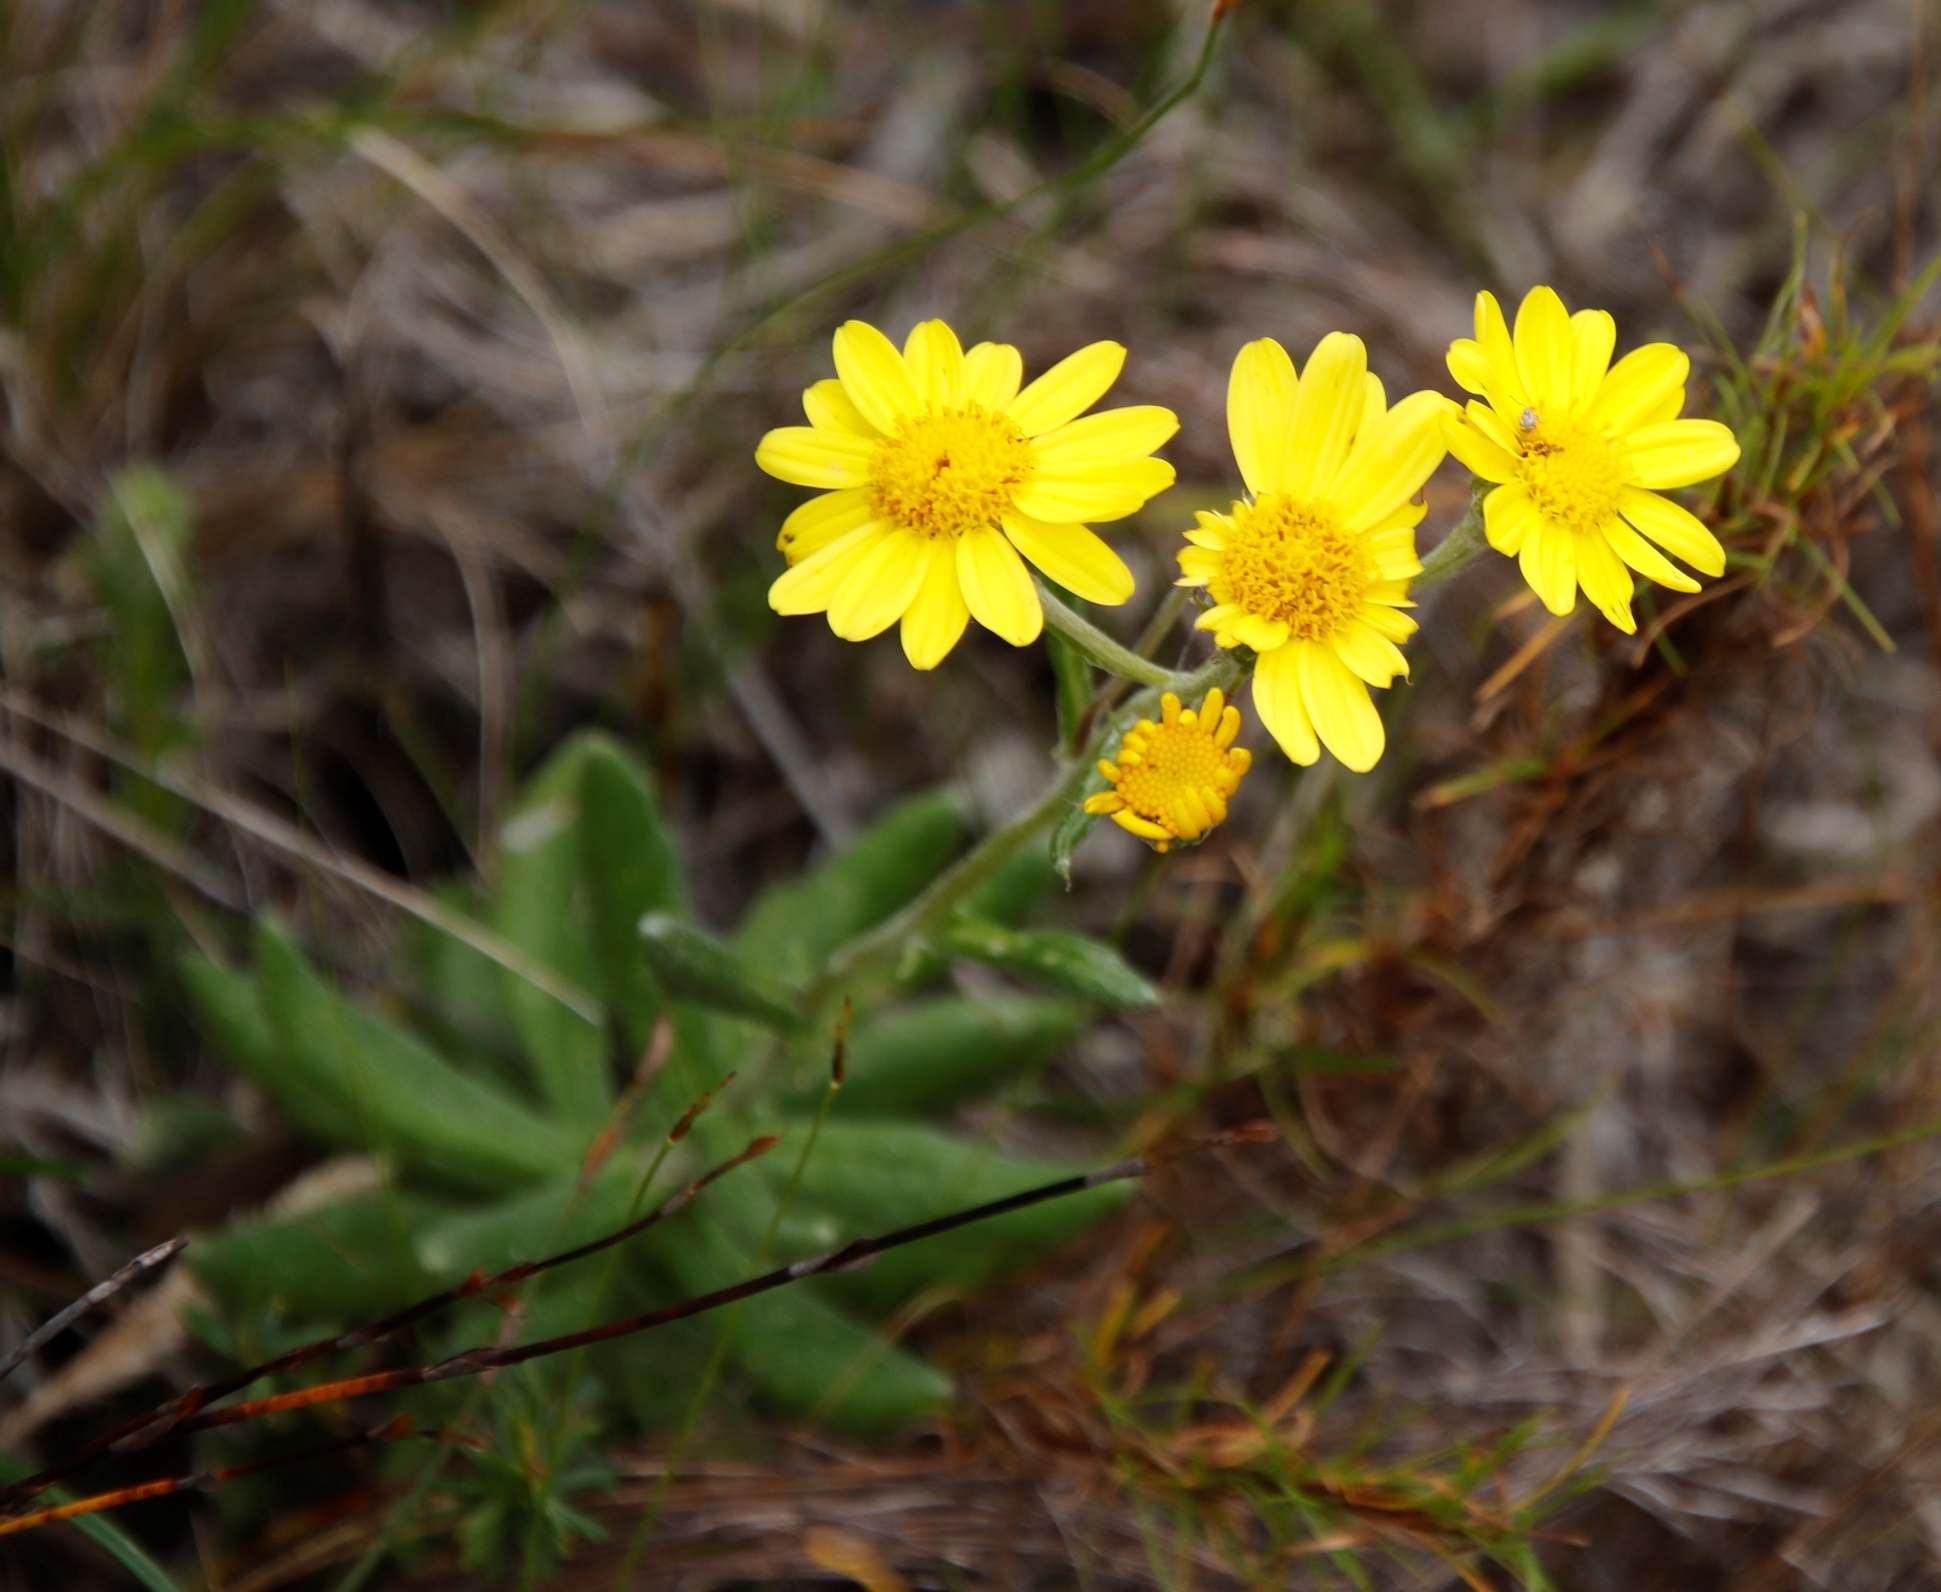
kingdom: Plantae
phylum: Tracheophyta
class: Magnoliopsida
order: Asterales
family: Asteraceae
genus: Senecio
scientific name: Senecio arniciflorus
